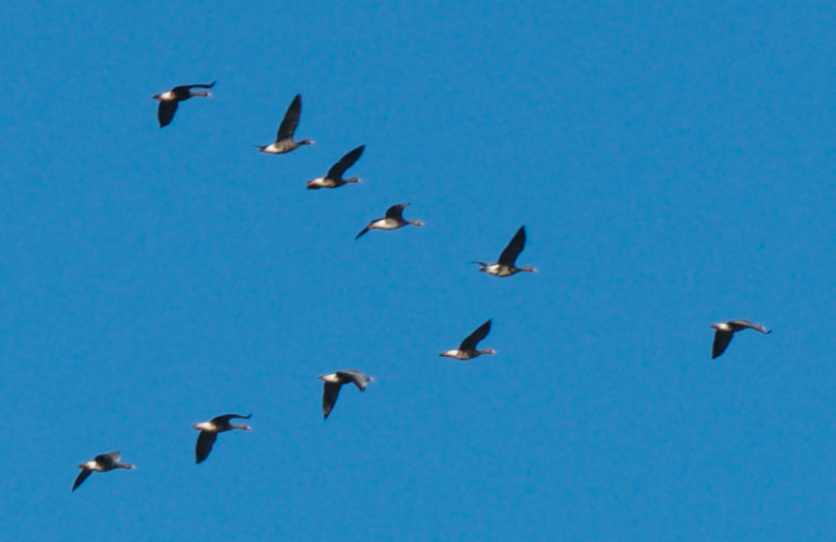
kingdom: Animalia
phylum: Chordata
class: Aves
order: Anseriformes
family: Anatidae
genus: Anser
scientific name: Anser albifrons
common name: Greater white-fronted goose
